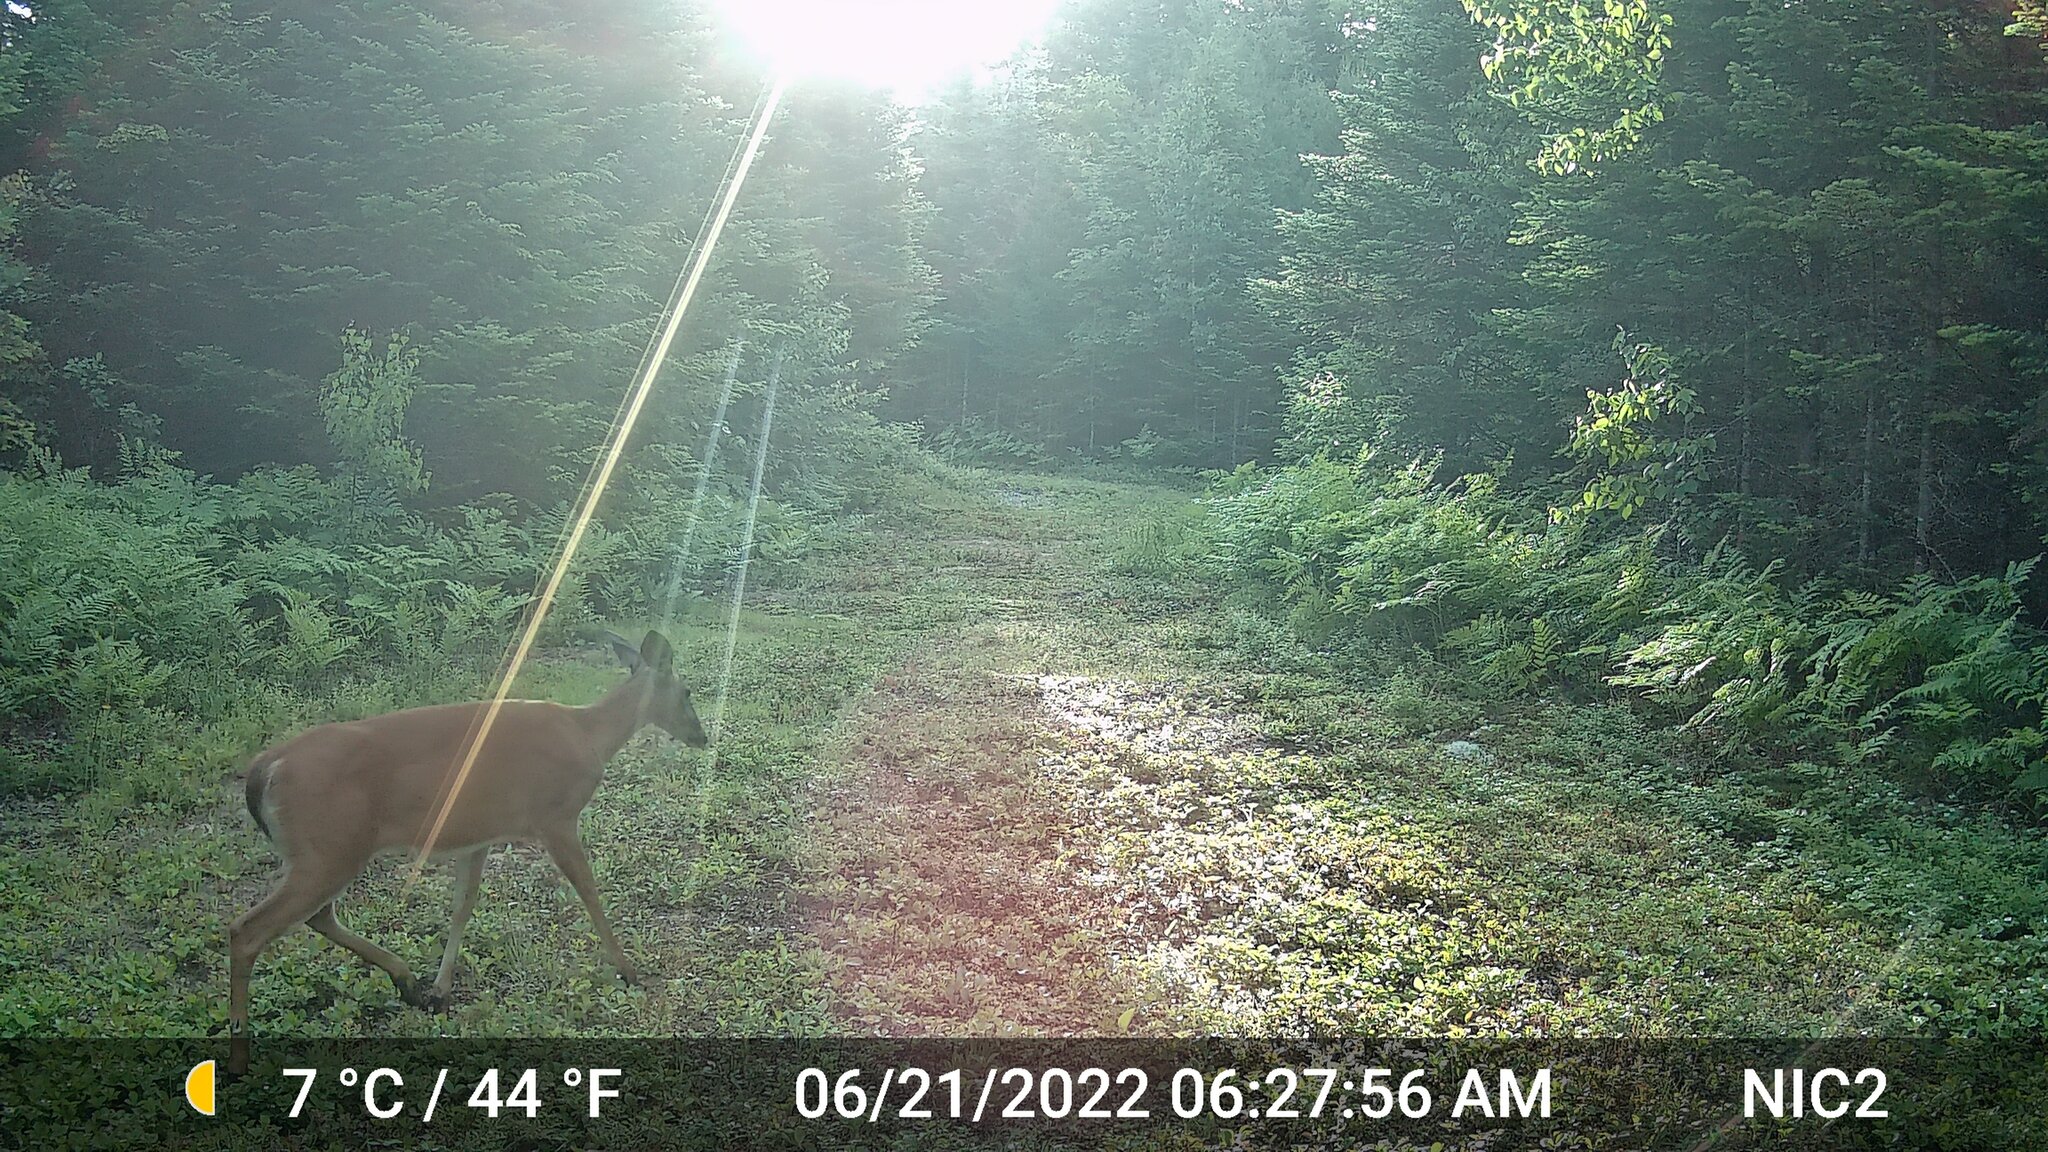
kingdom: Animalia
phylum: Chordata
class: Mammalia
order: Artiodactyla
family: Cervidae
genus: Odocoileus
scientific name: Odocoileus virginianus
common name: White-tailed deer
